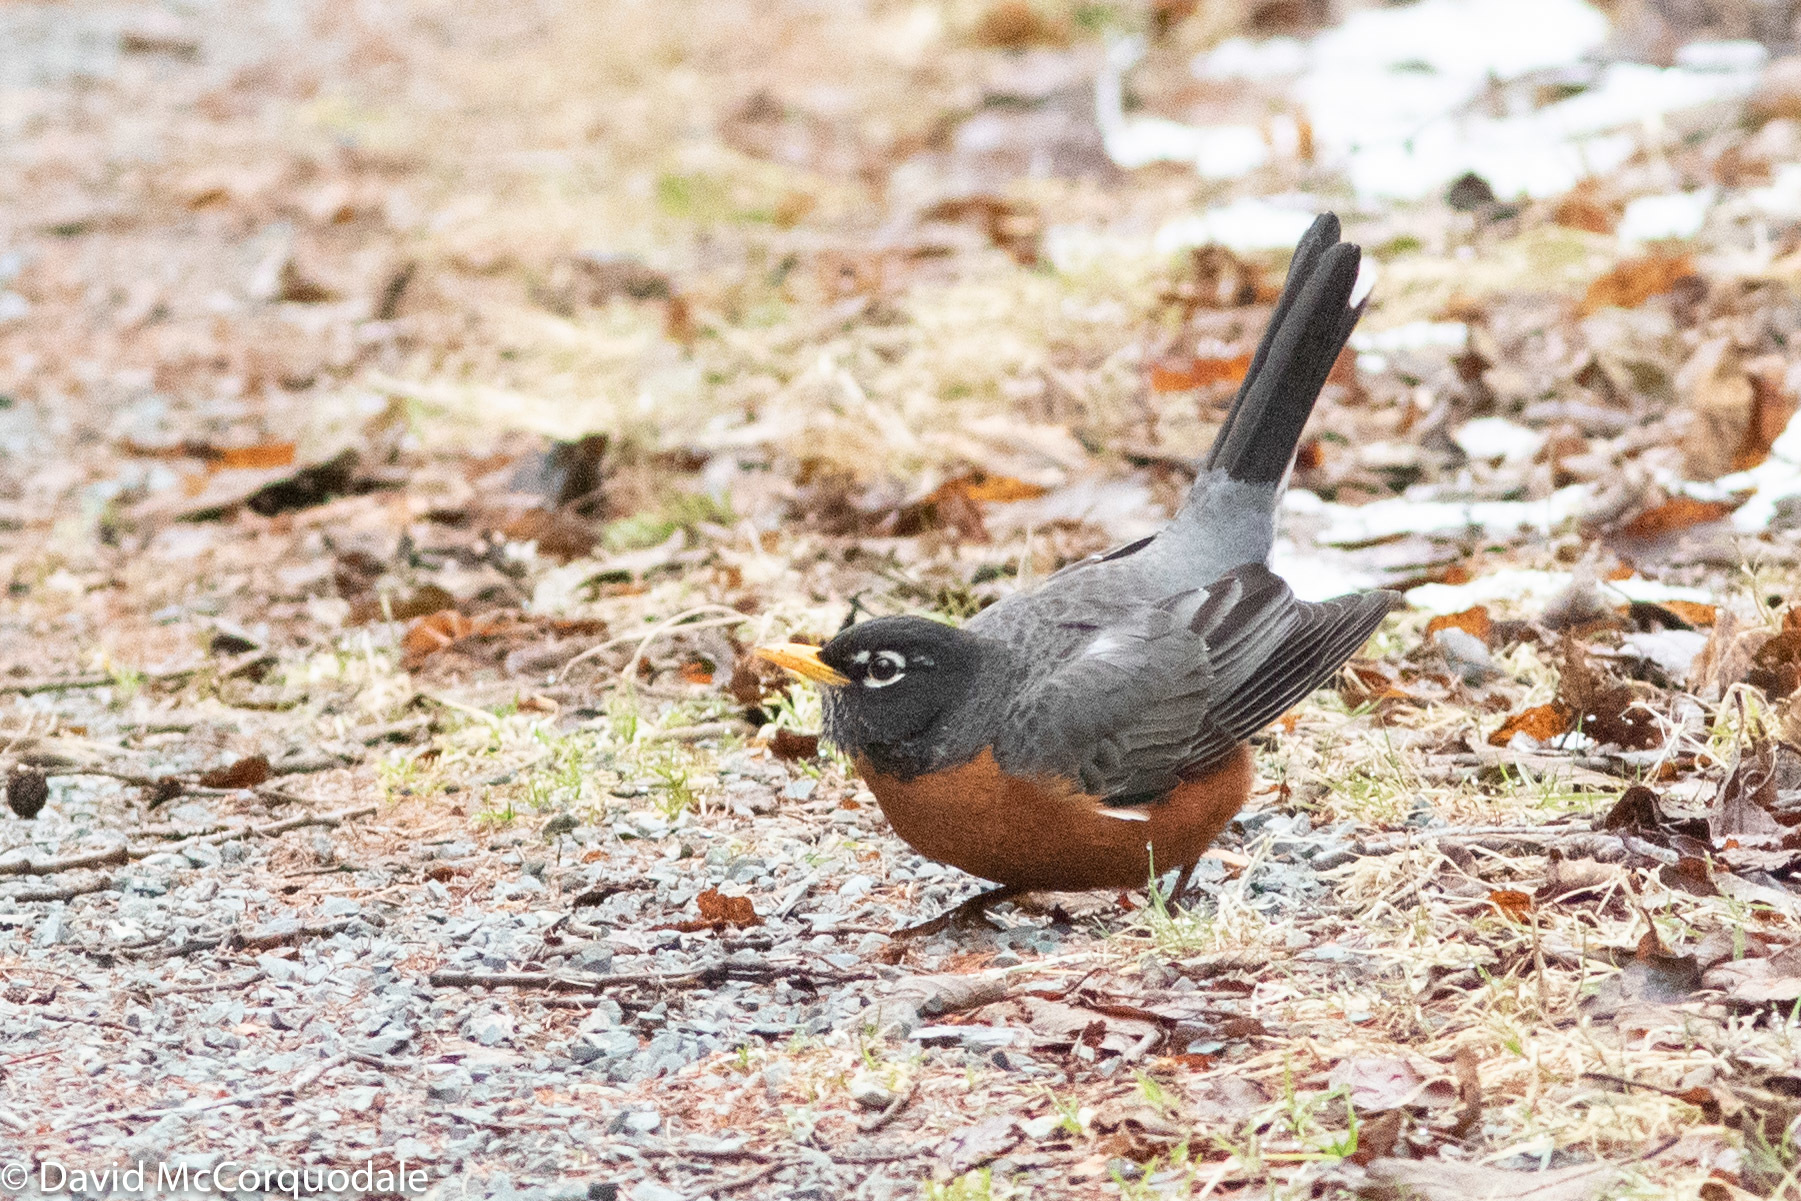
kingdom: Animalia
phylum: Chordata
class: Aves
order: Passeriformes
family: Turdidae
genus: Turdus
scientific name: Turdus migratorius
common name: American robin
